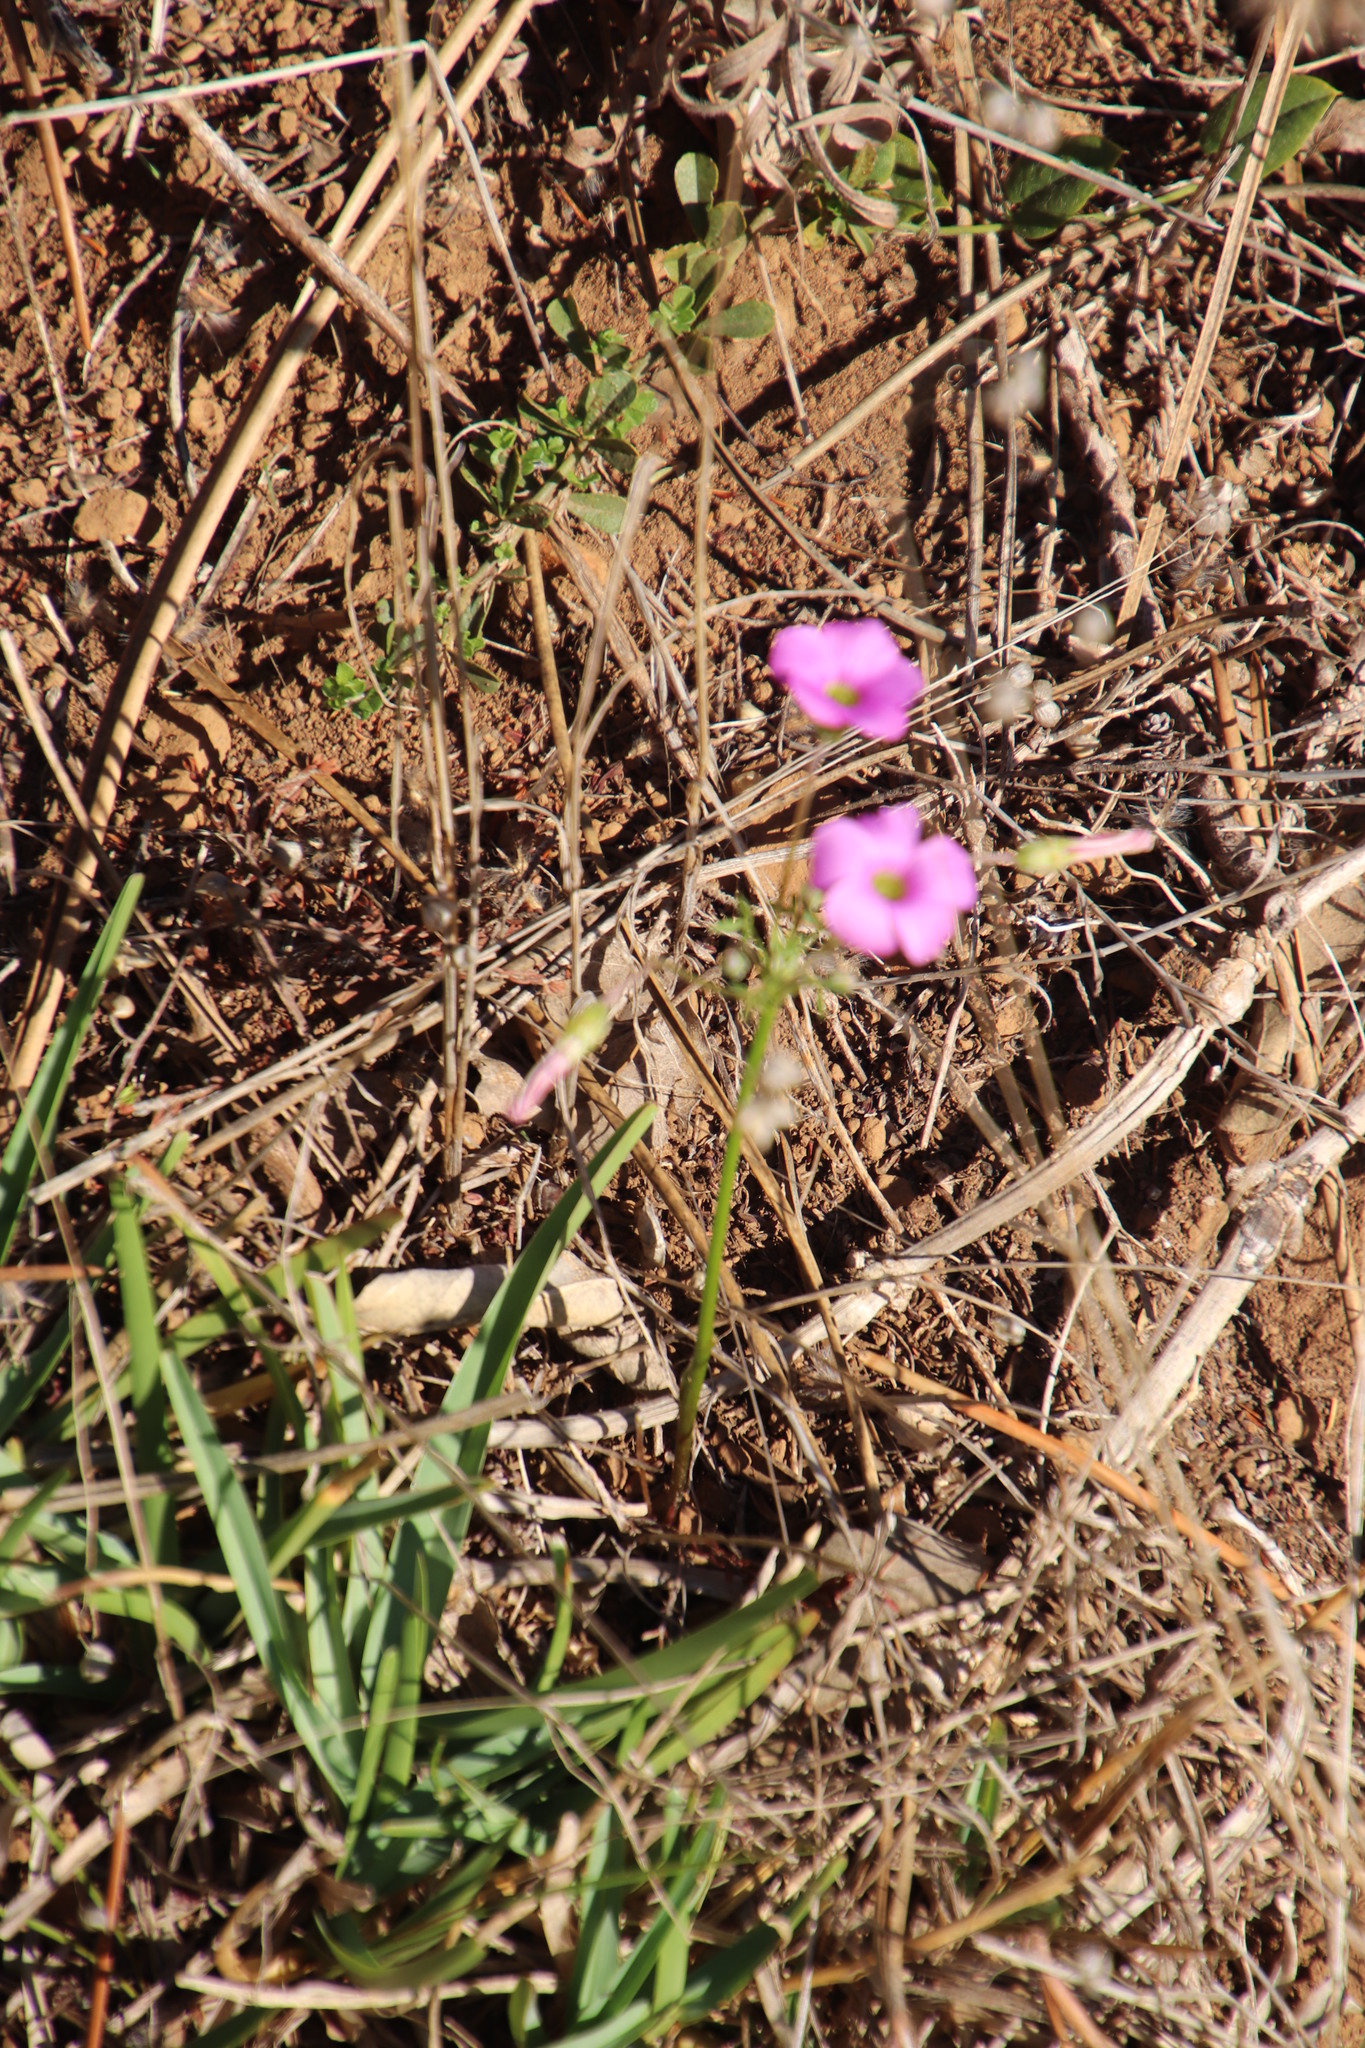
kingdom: Plantae
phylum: Tracheophyta
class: Magnoliopsida
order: Oxalidales
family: Oxalidaceae
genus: Oxalis
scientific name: Oxalis bifida
